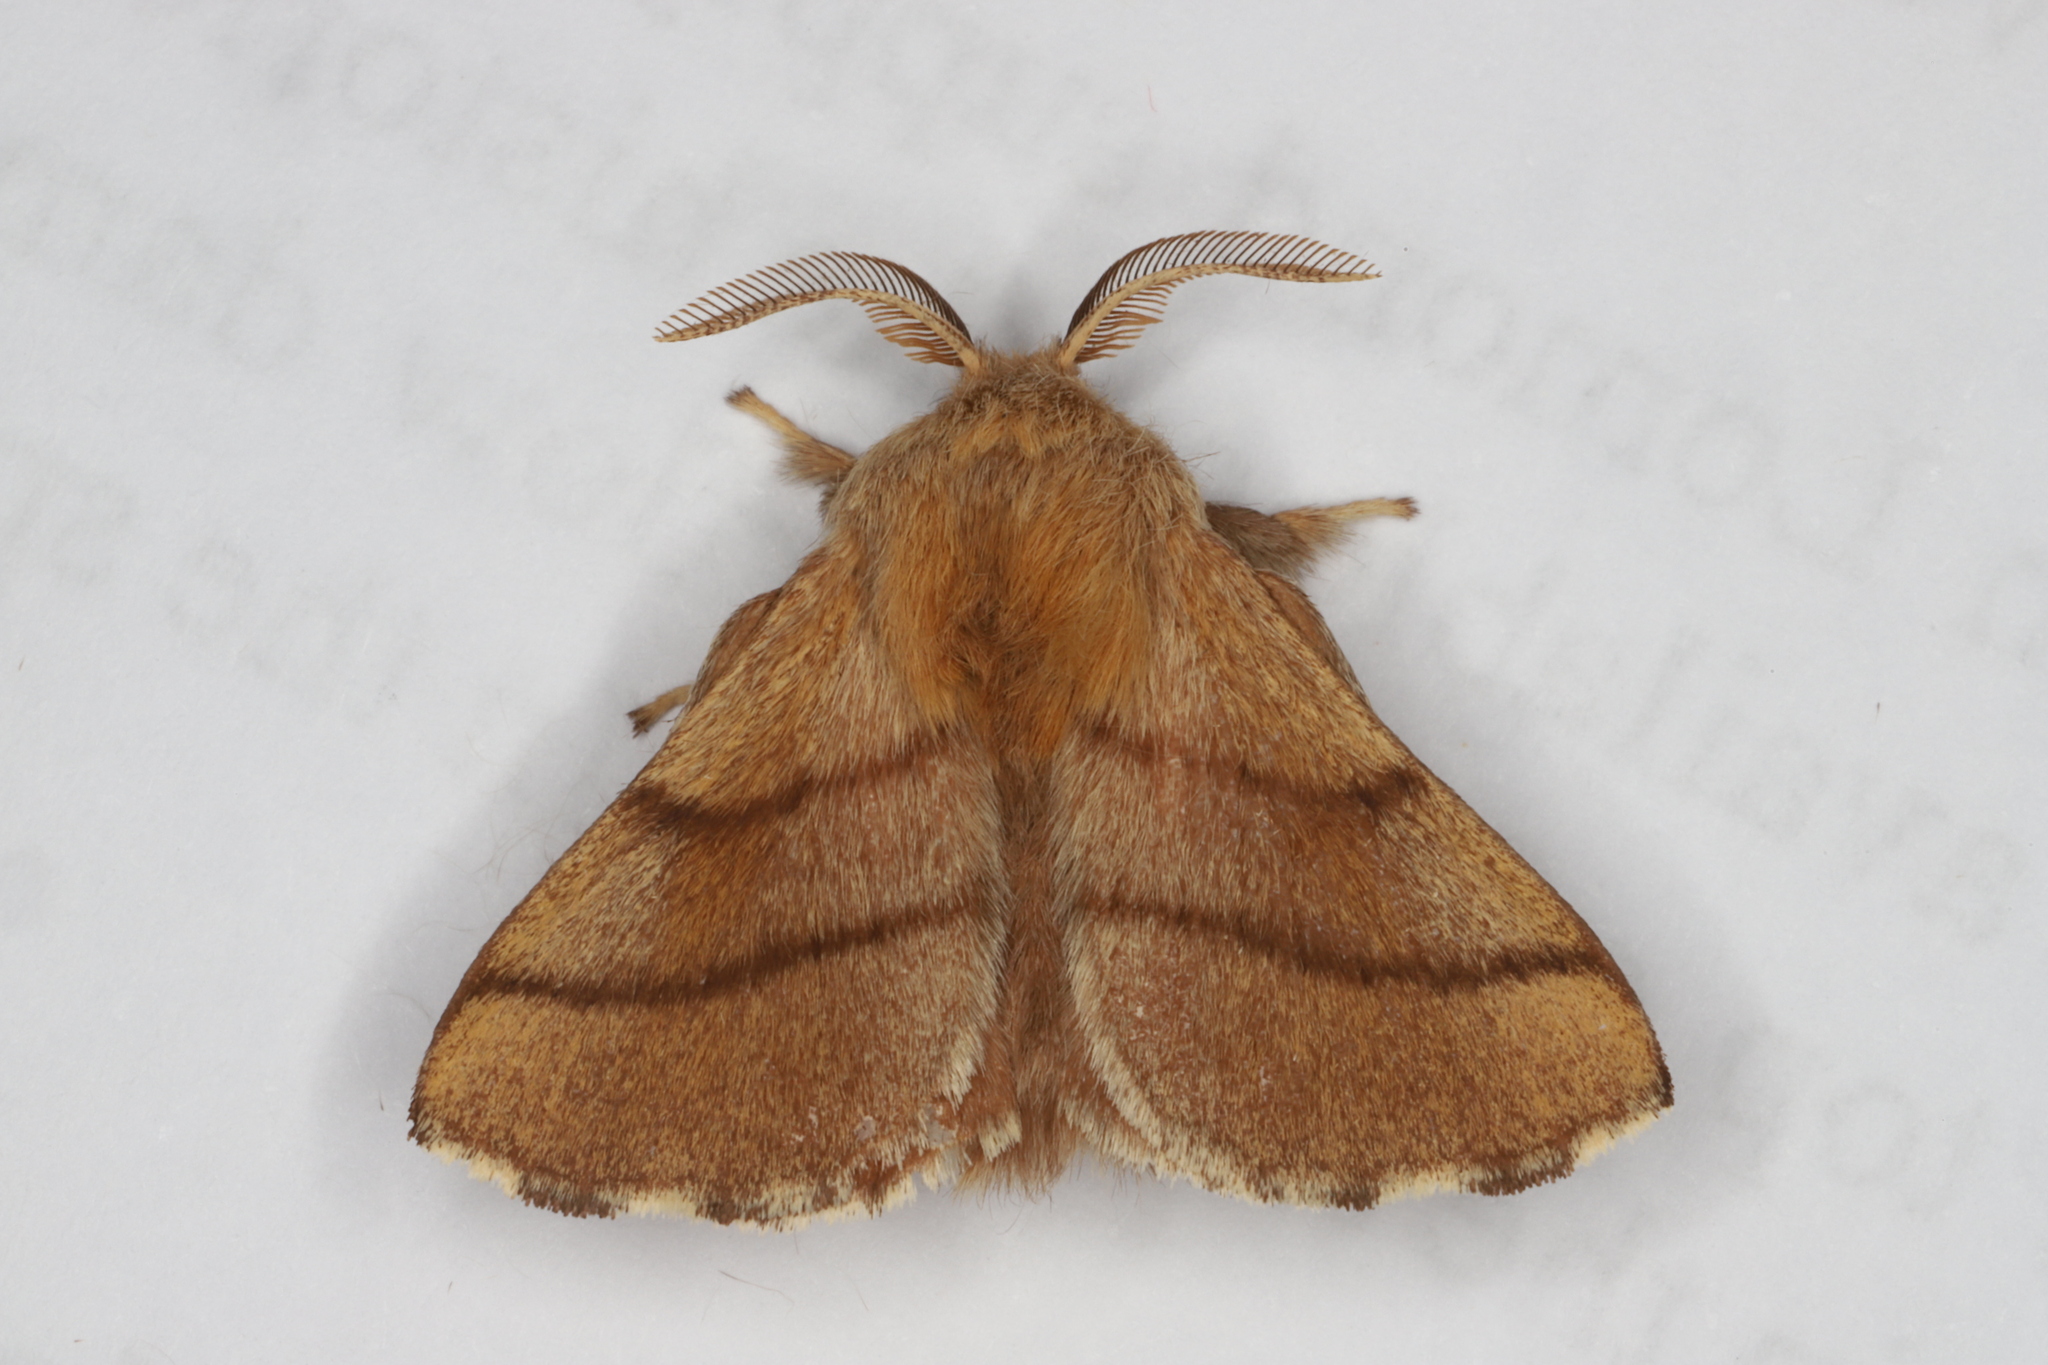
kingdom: Animalia
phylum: Arthropoda
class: Insecta
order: Lepidoptera
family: Lasiocampidae
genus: Malacosoma
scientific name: Malacosoma disstria
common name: Forest tent caterpillar
